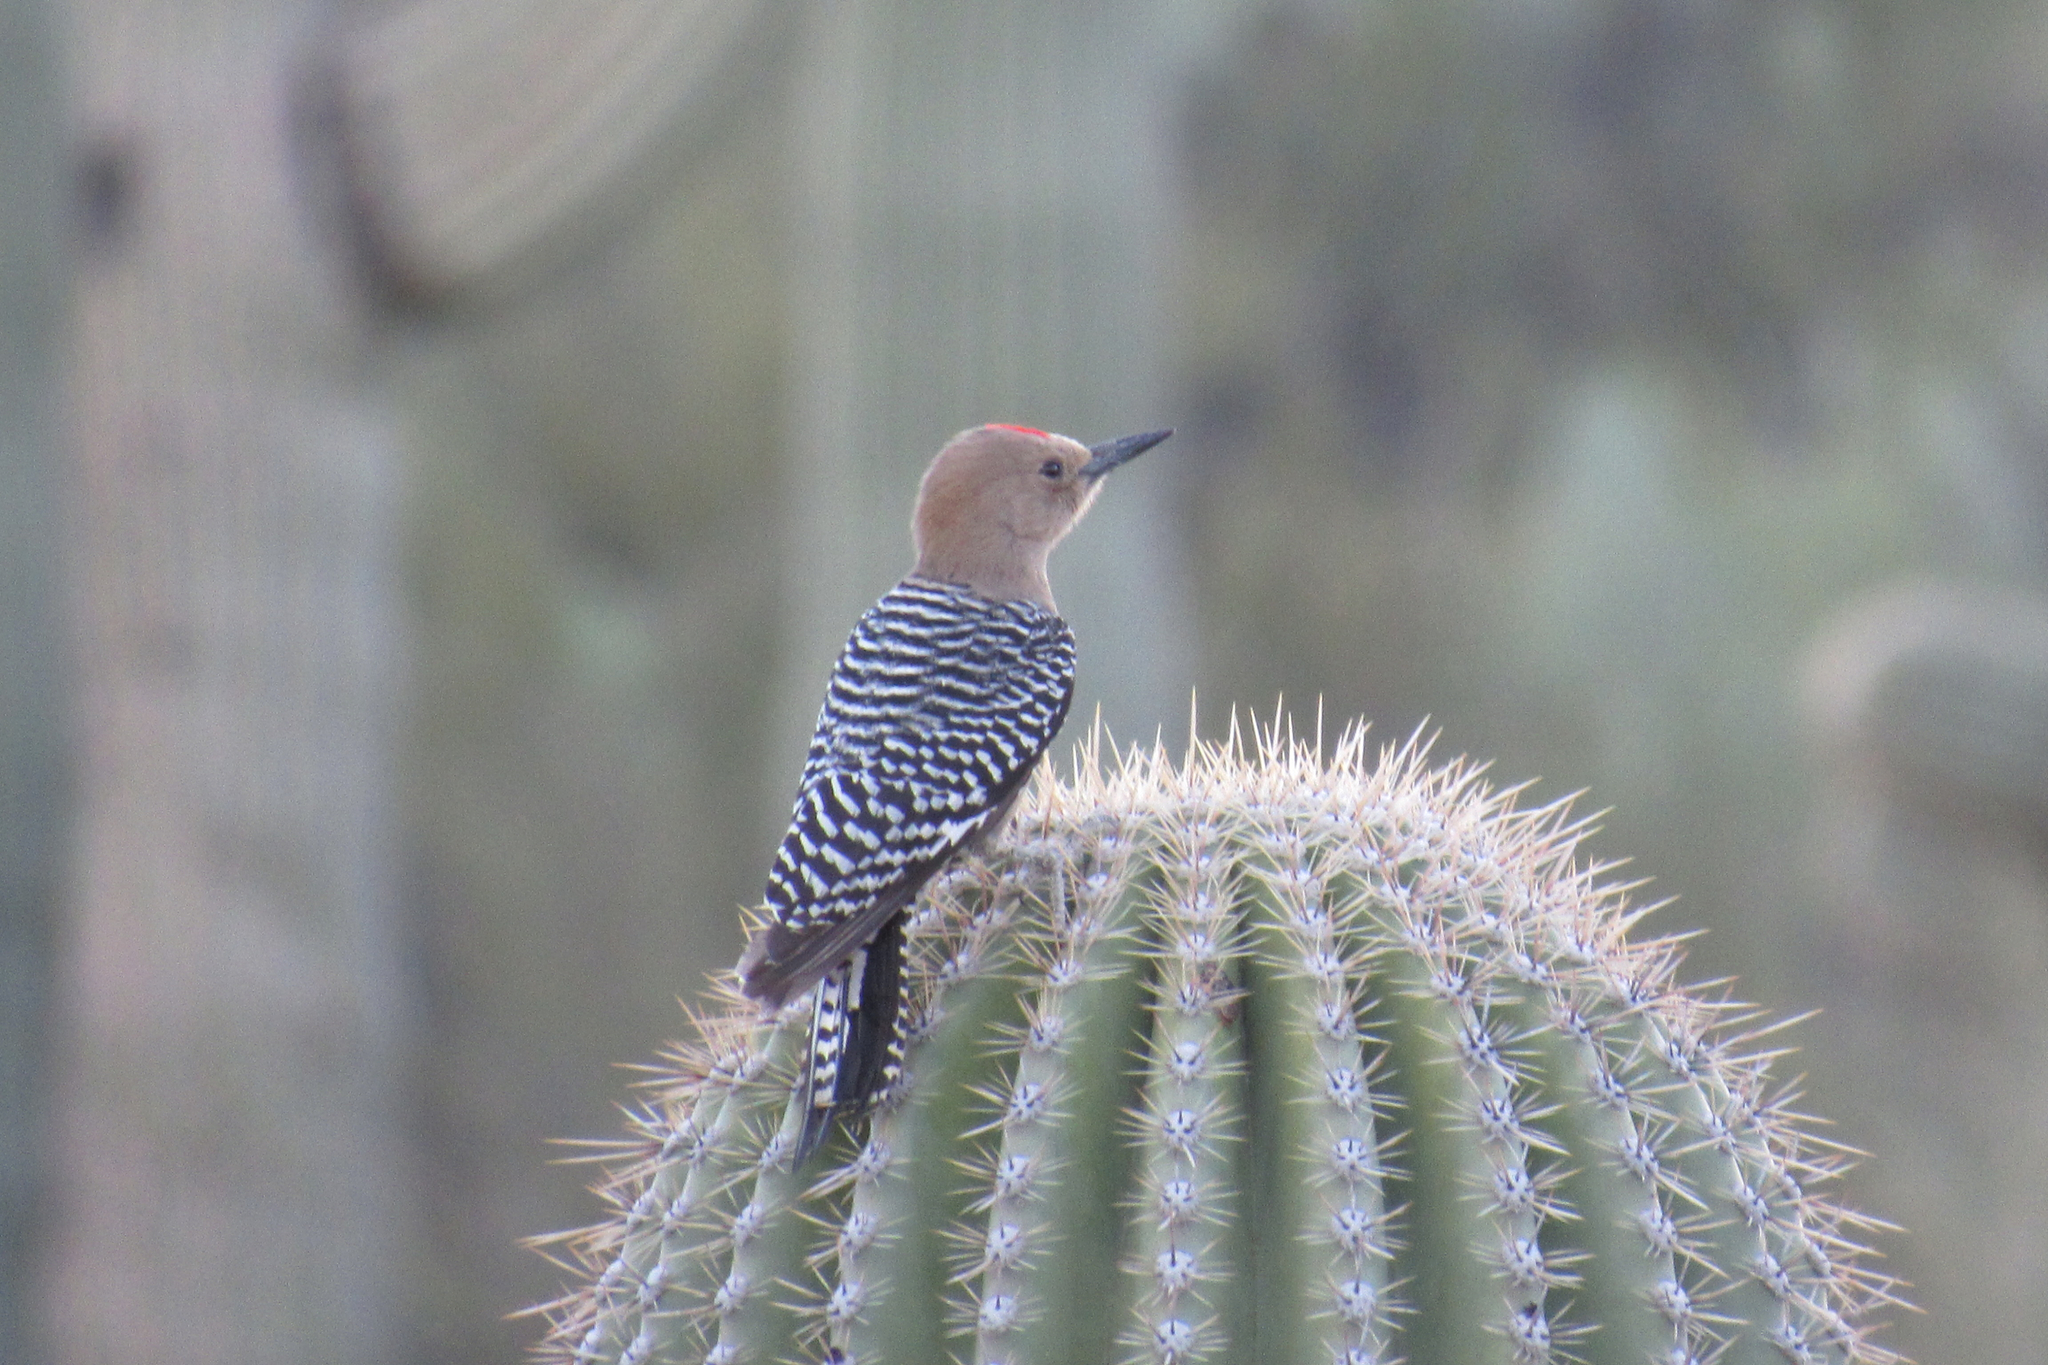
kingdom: Animalia
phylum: Chordata
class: Aves
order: Piciformes
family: Picidae
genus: Melanerpes
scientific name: Melanerpes uropygialis
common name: Gila woodpecker
